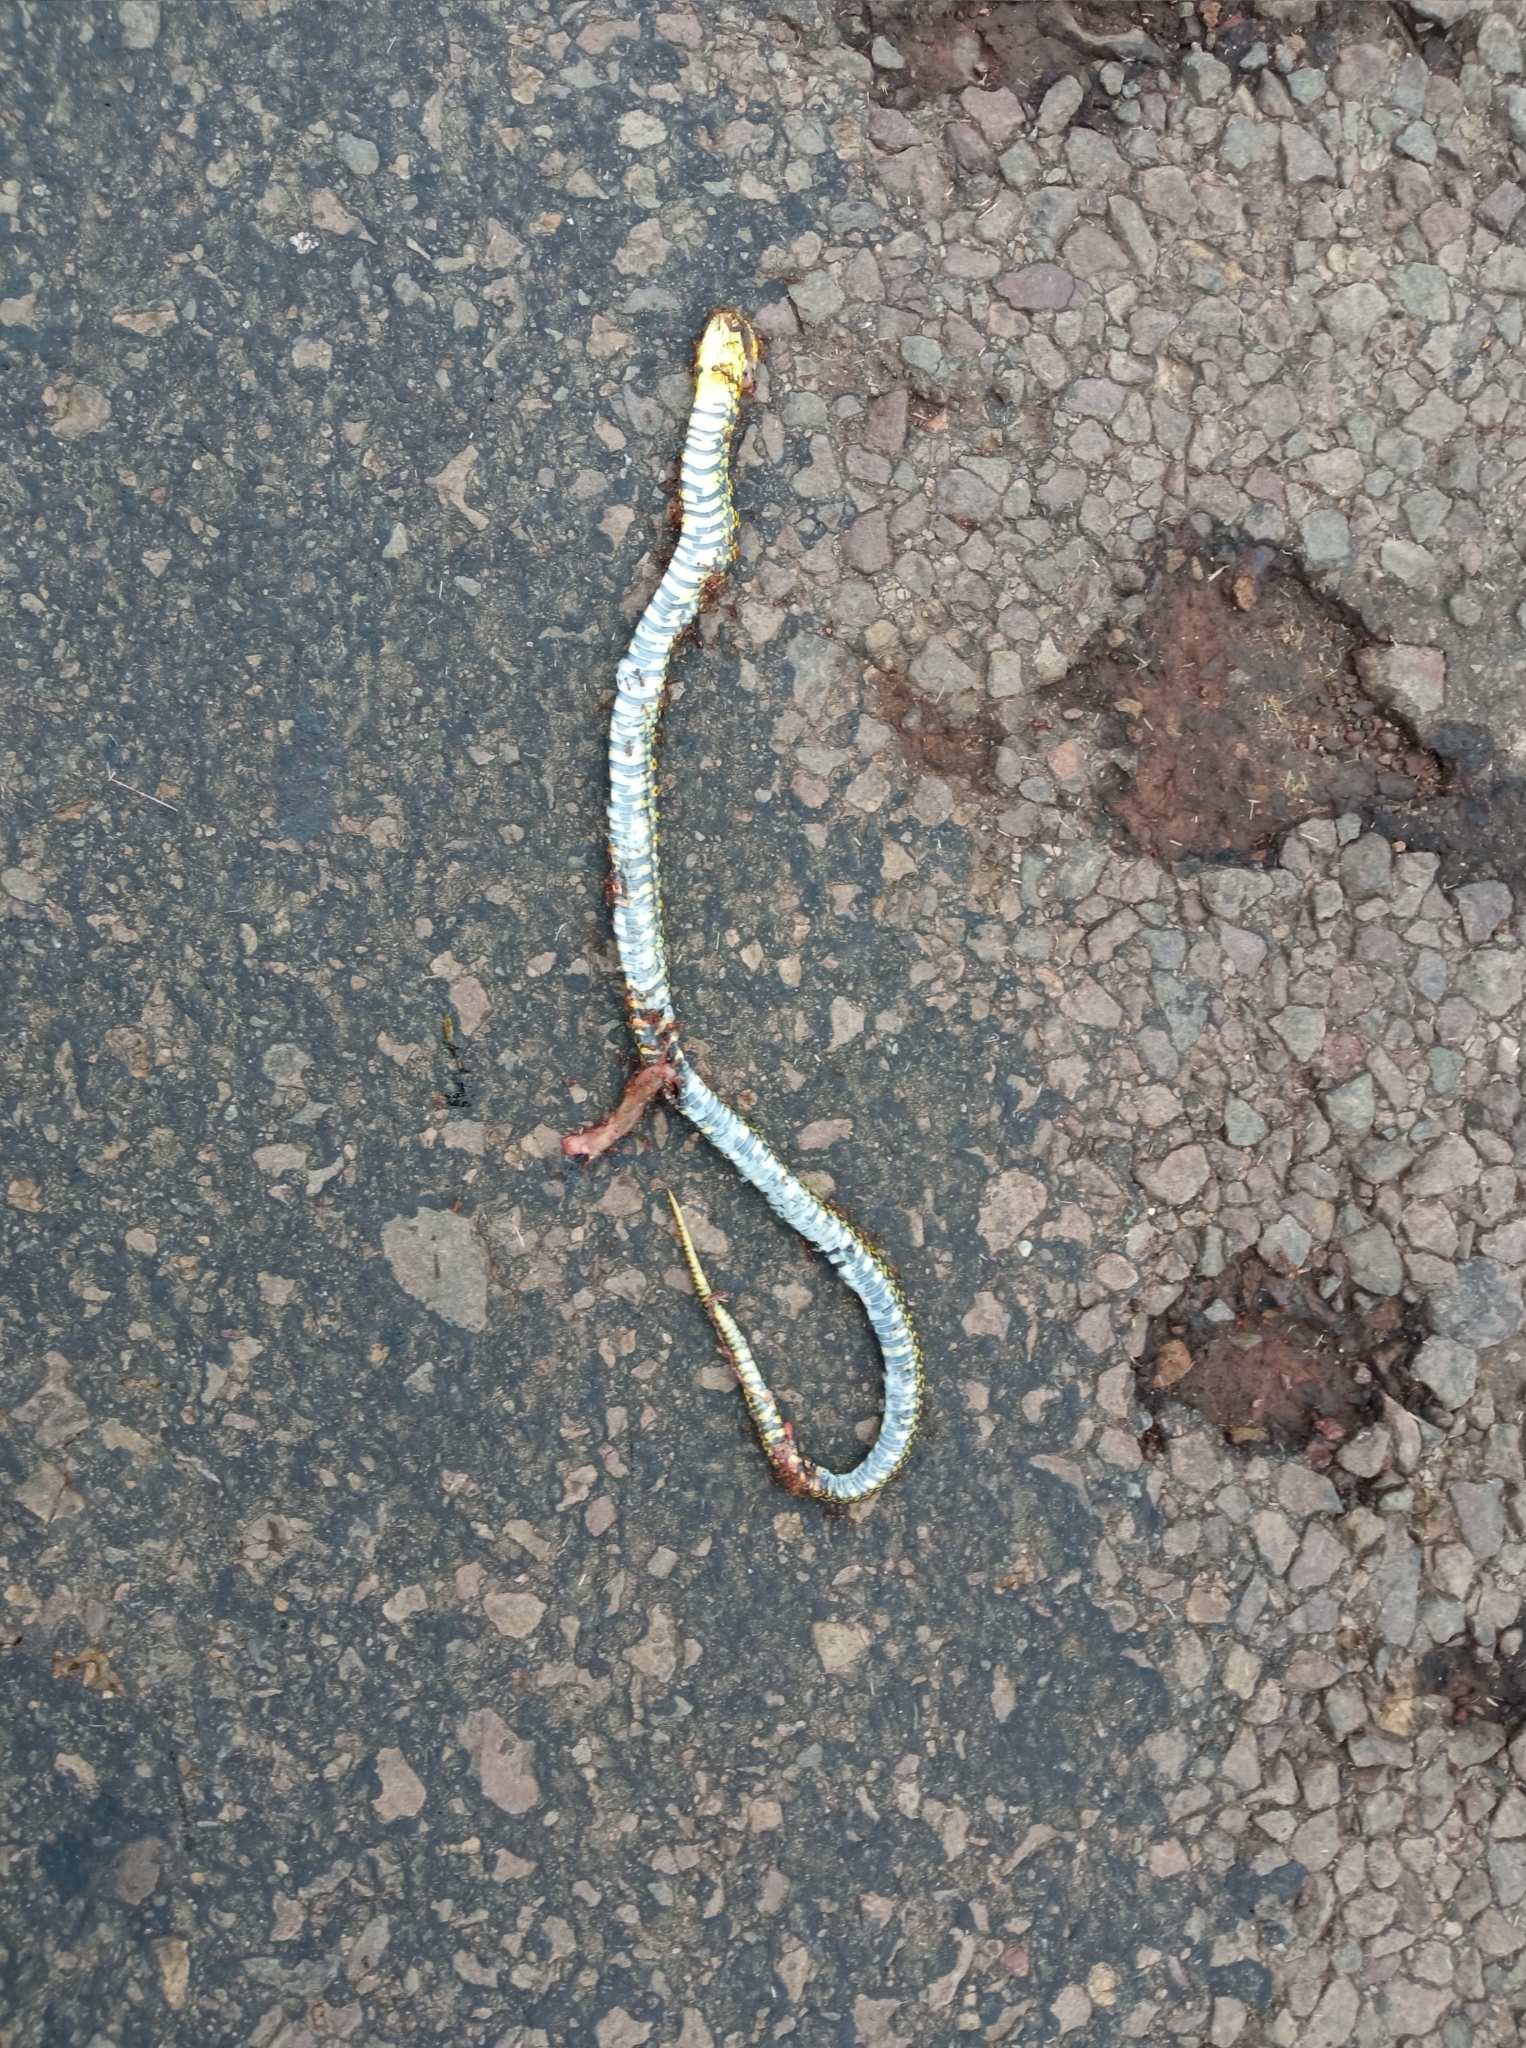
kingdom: Animalia
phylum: Chordata
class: Squamata
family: Colubridae
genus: Erythrolamprus
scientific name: Erythrolamprus poecilogyrus
